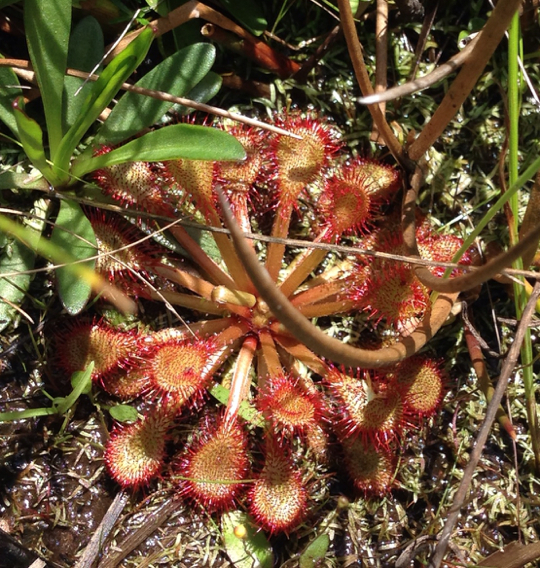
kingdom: Plantae
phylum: Tracheophyta
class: Magnoliopsida
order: Caryophyllales
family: Droseraceae
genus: Drosera
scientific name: Drosera capillaris
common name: Pink sundew
